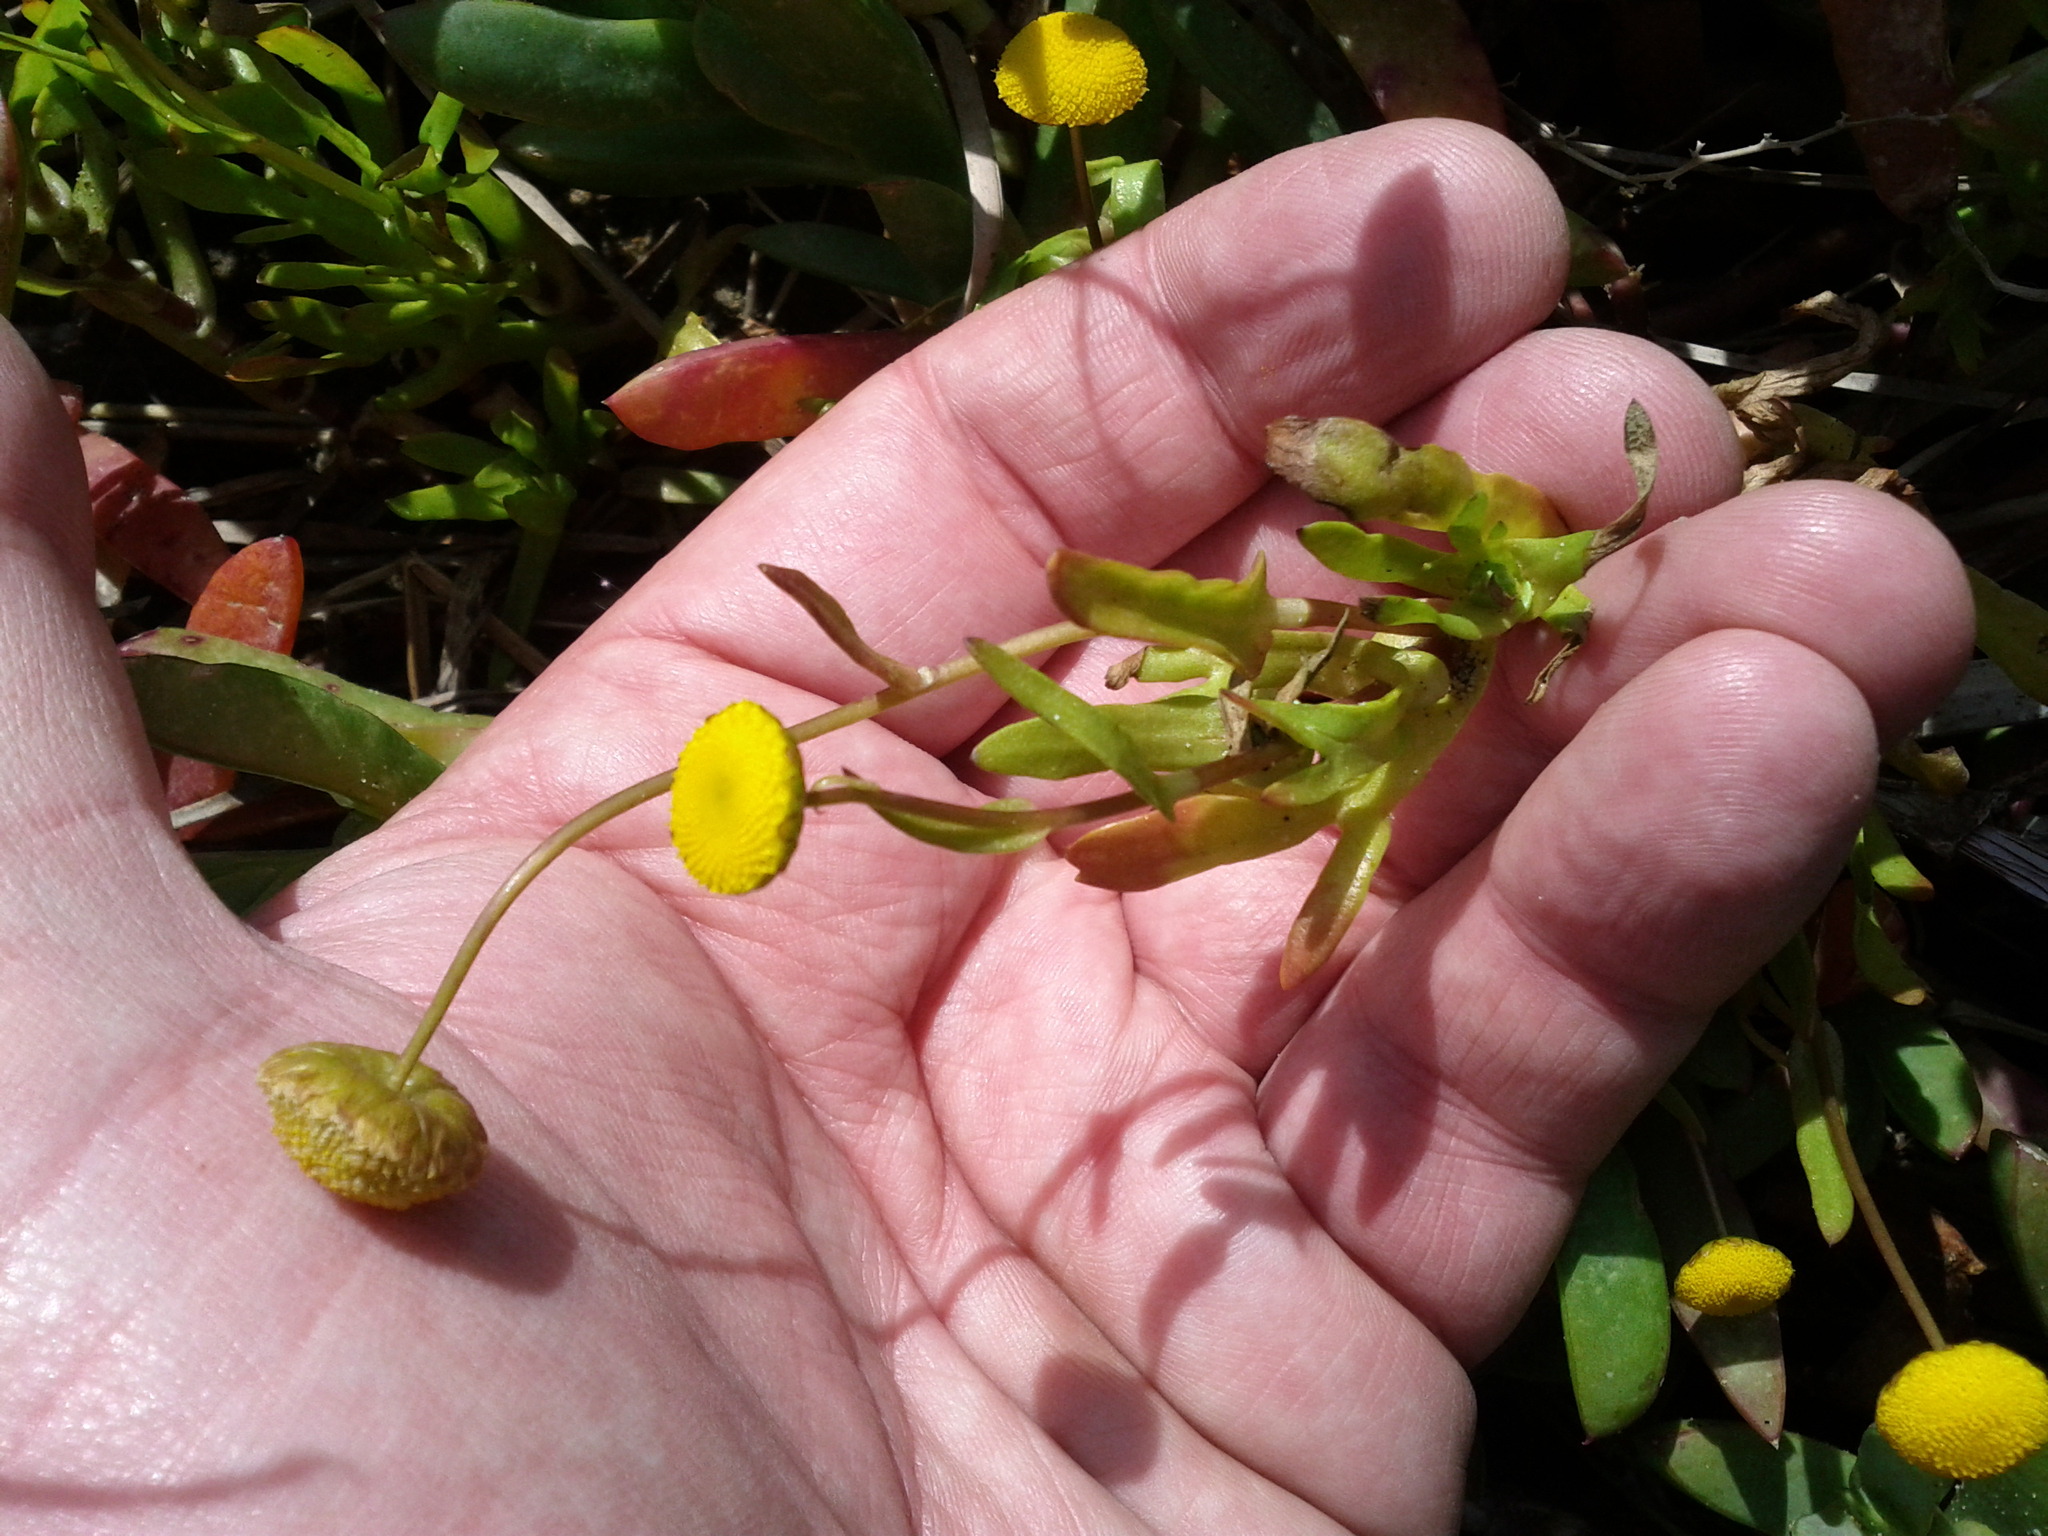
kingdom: Plantae
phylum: Tracheophyta
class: Magnoliopsida
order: Asterales
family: Asteraceae
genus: Cotula
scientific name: Cotula coronopifolia
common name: Buttonweed
